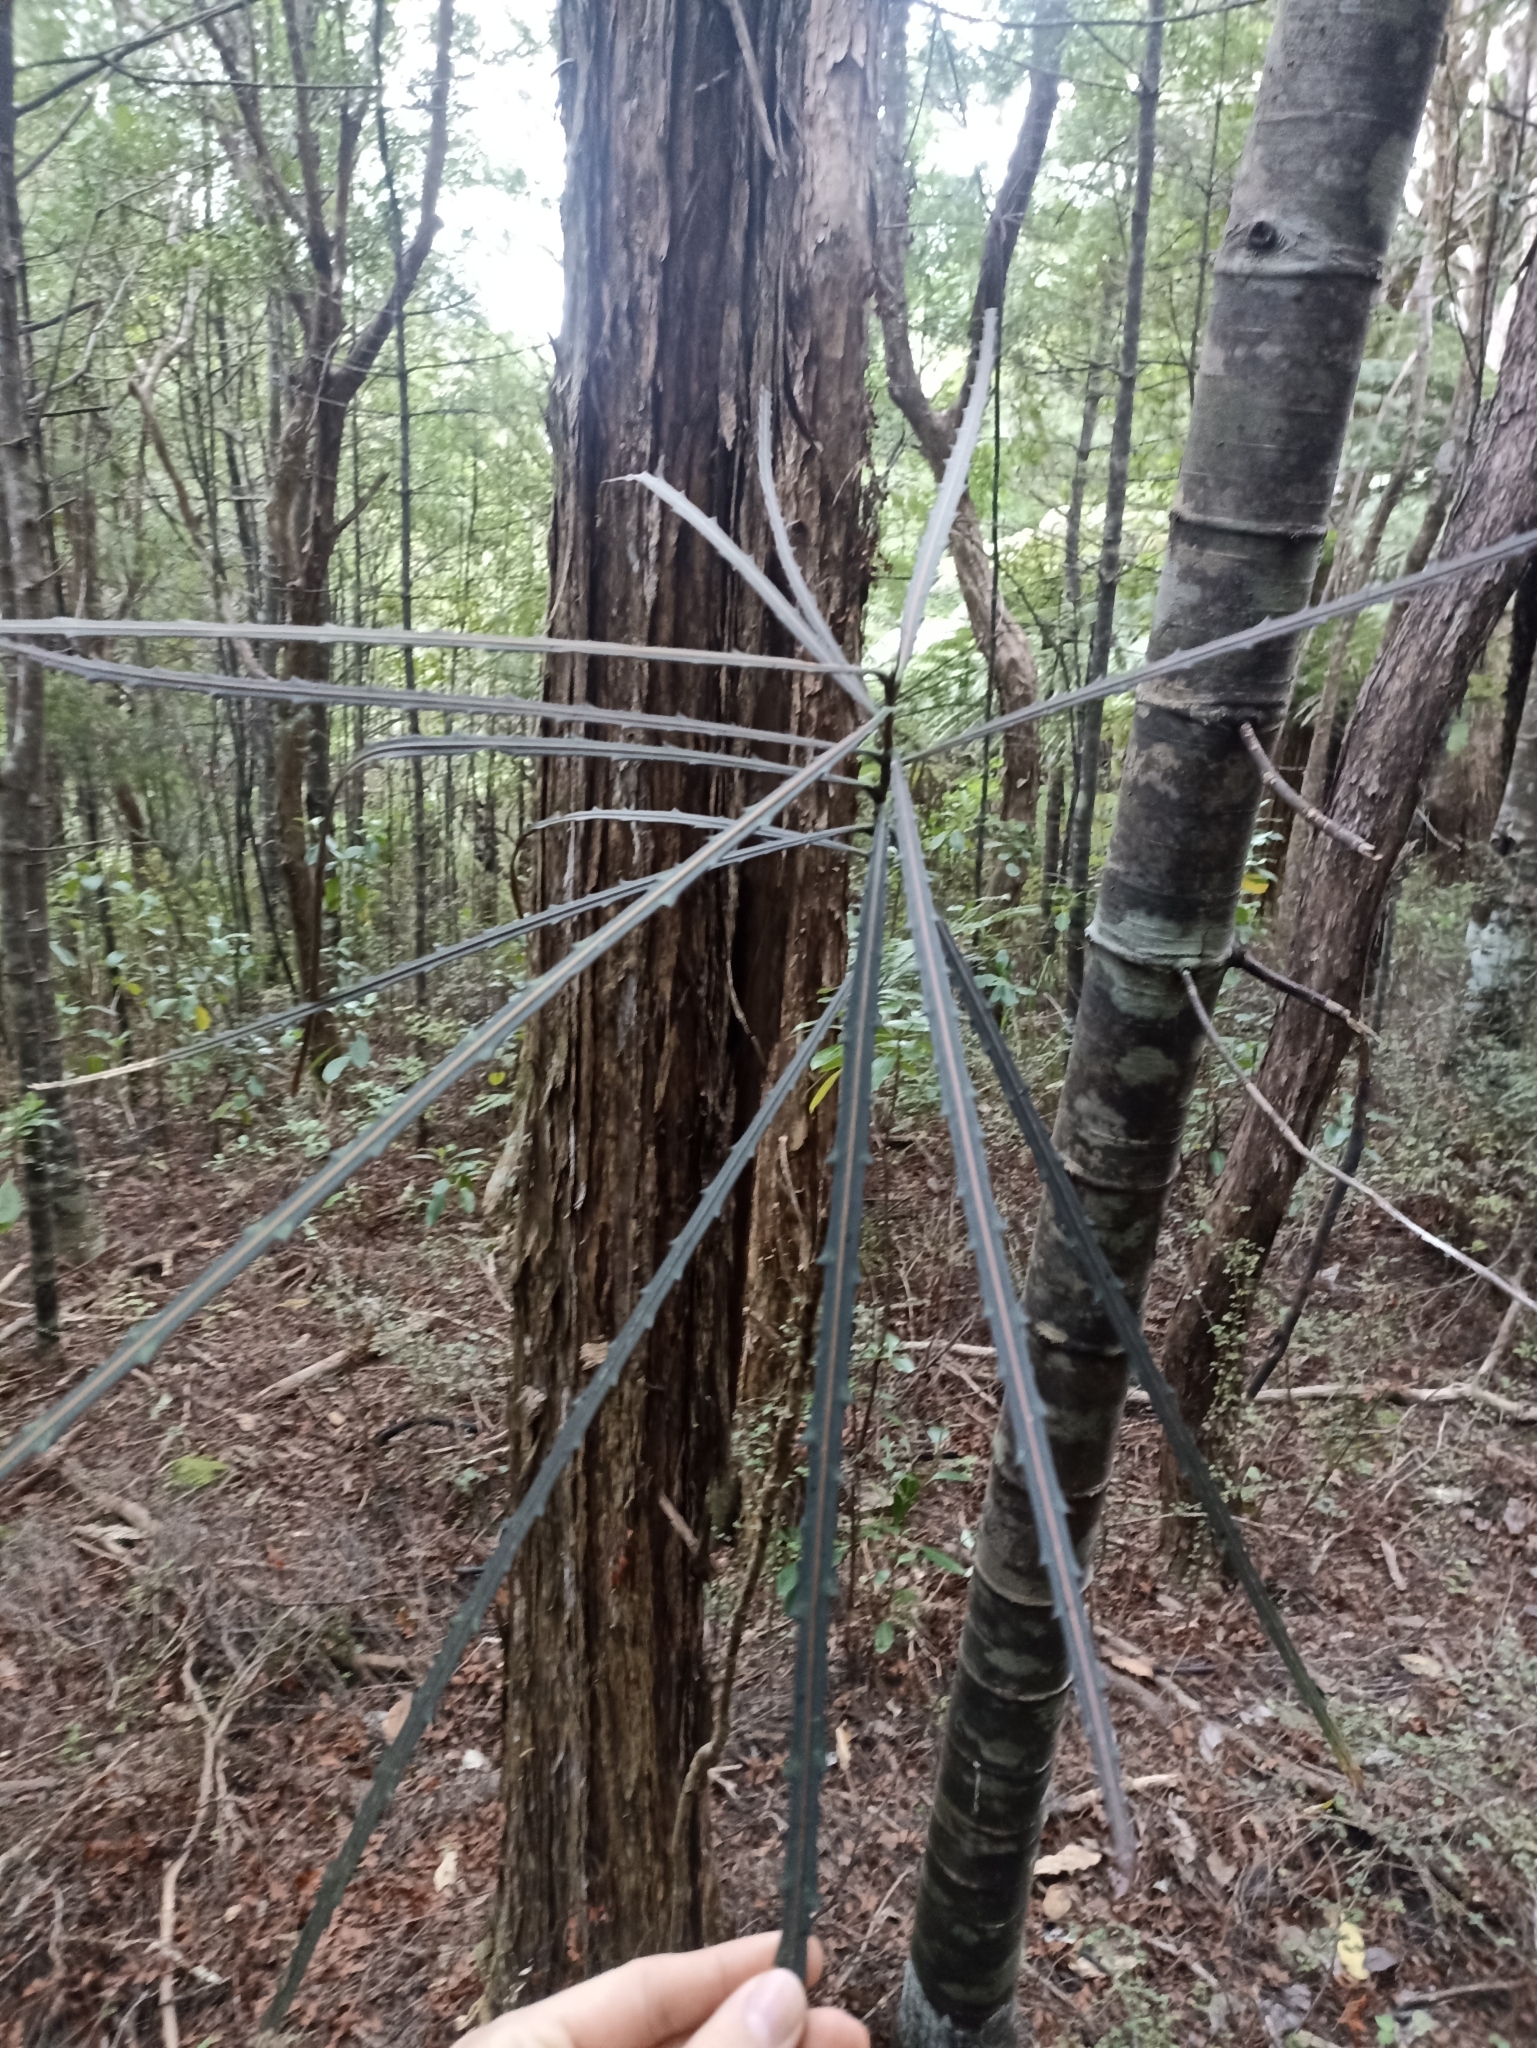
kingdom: Plantae
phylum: Tracheophyta
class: Magnoliopsida
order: Apiales
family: Araliaceae
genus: Pseudopanax
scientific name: Pseudopanax crassifolius
